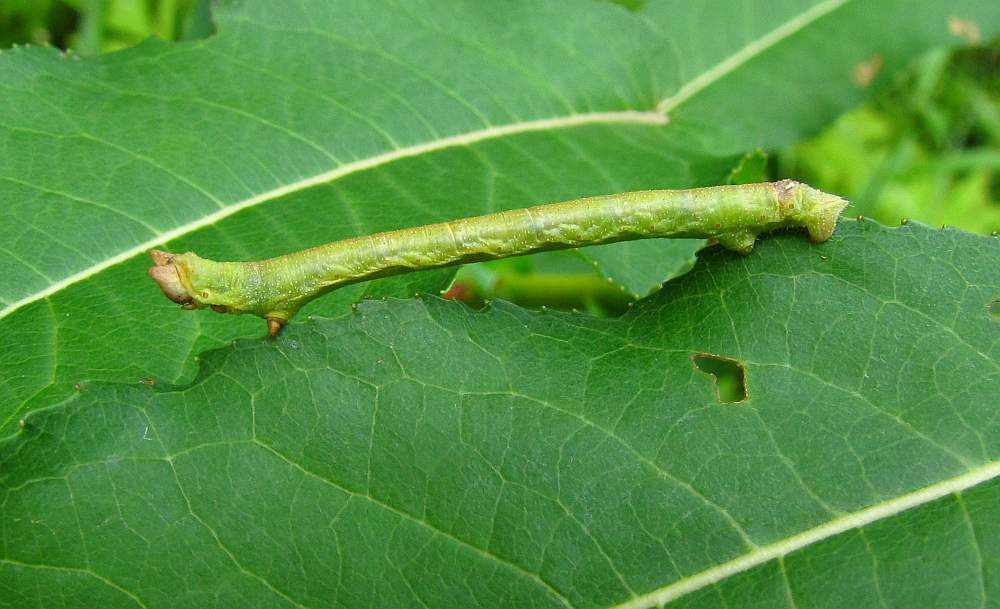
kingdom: Animalia
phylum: Arthropoda
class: Insecta
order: Lepidoptera
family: Geometridae
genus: Biston
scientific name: Biston betularia
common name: Peppered moth
